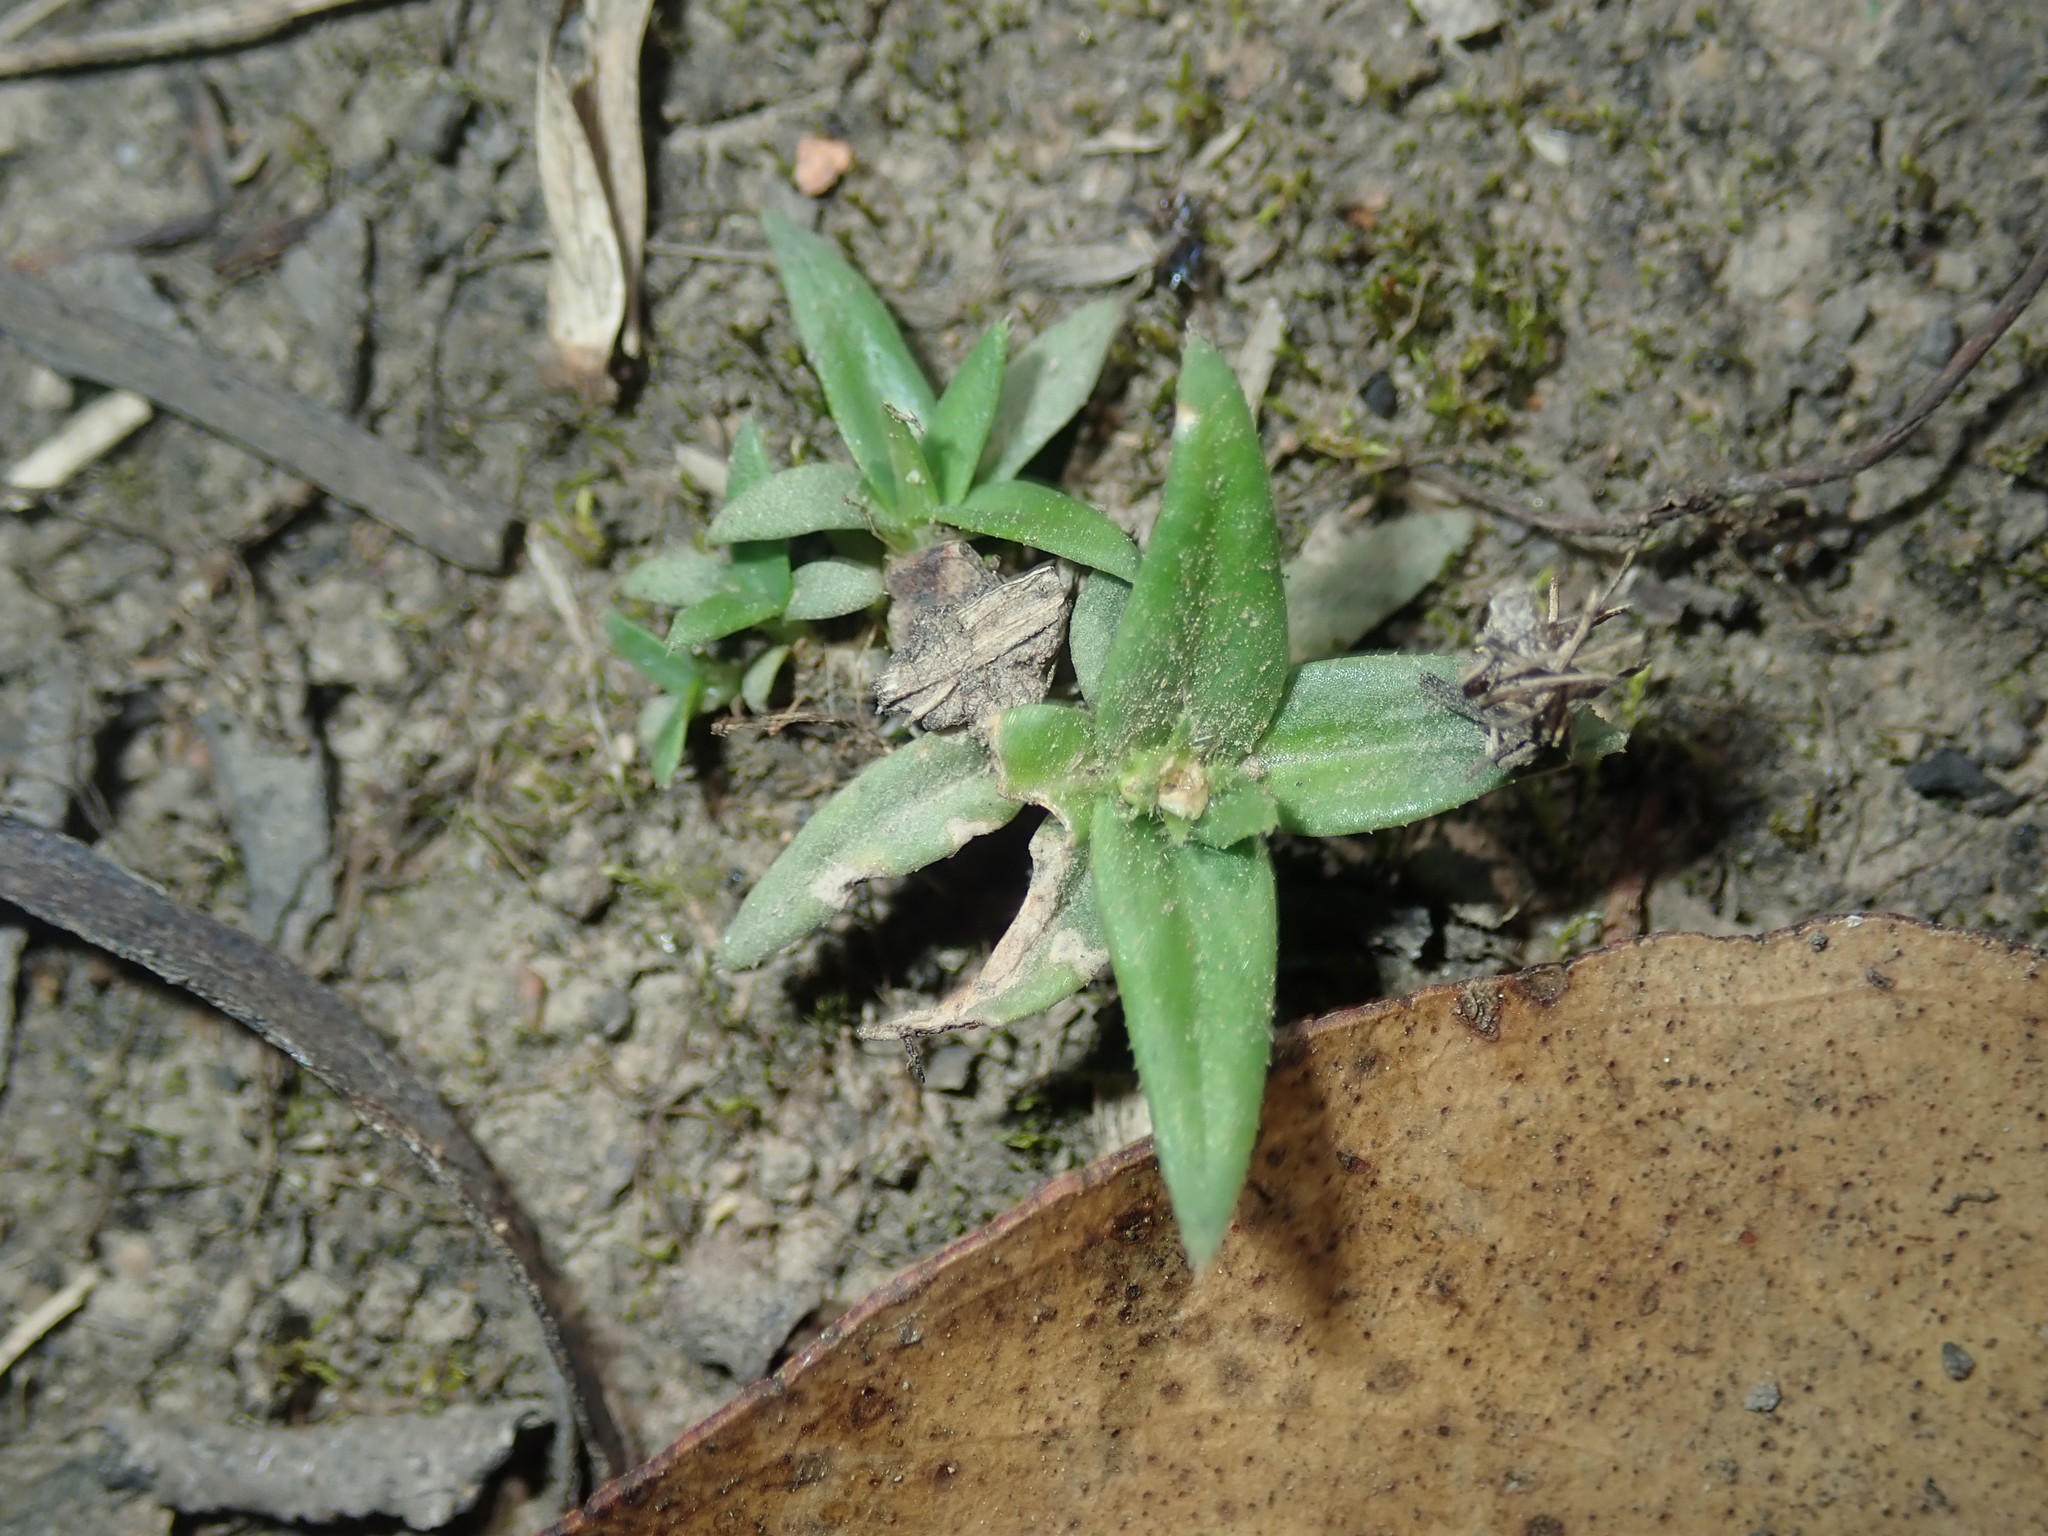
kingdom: Plantae
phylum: Tracheophyta
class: Magnoliopsida
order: Gentianales
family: Rubiaceae
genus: Richardia
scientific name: Richardia stellaris
